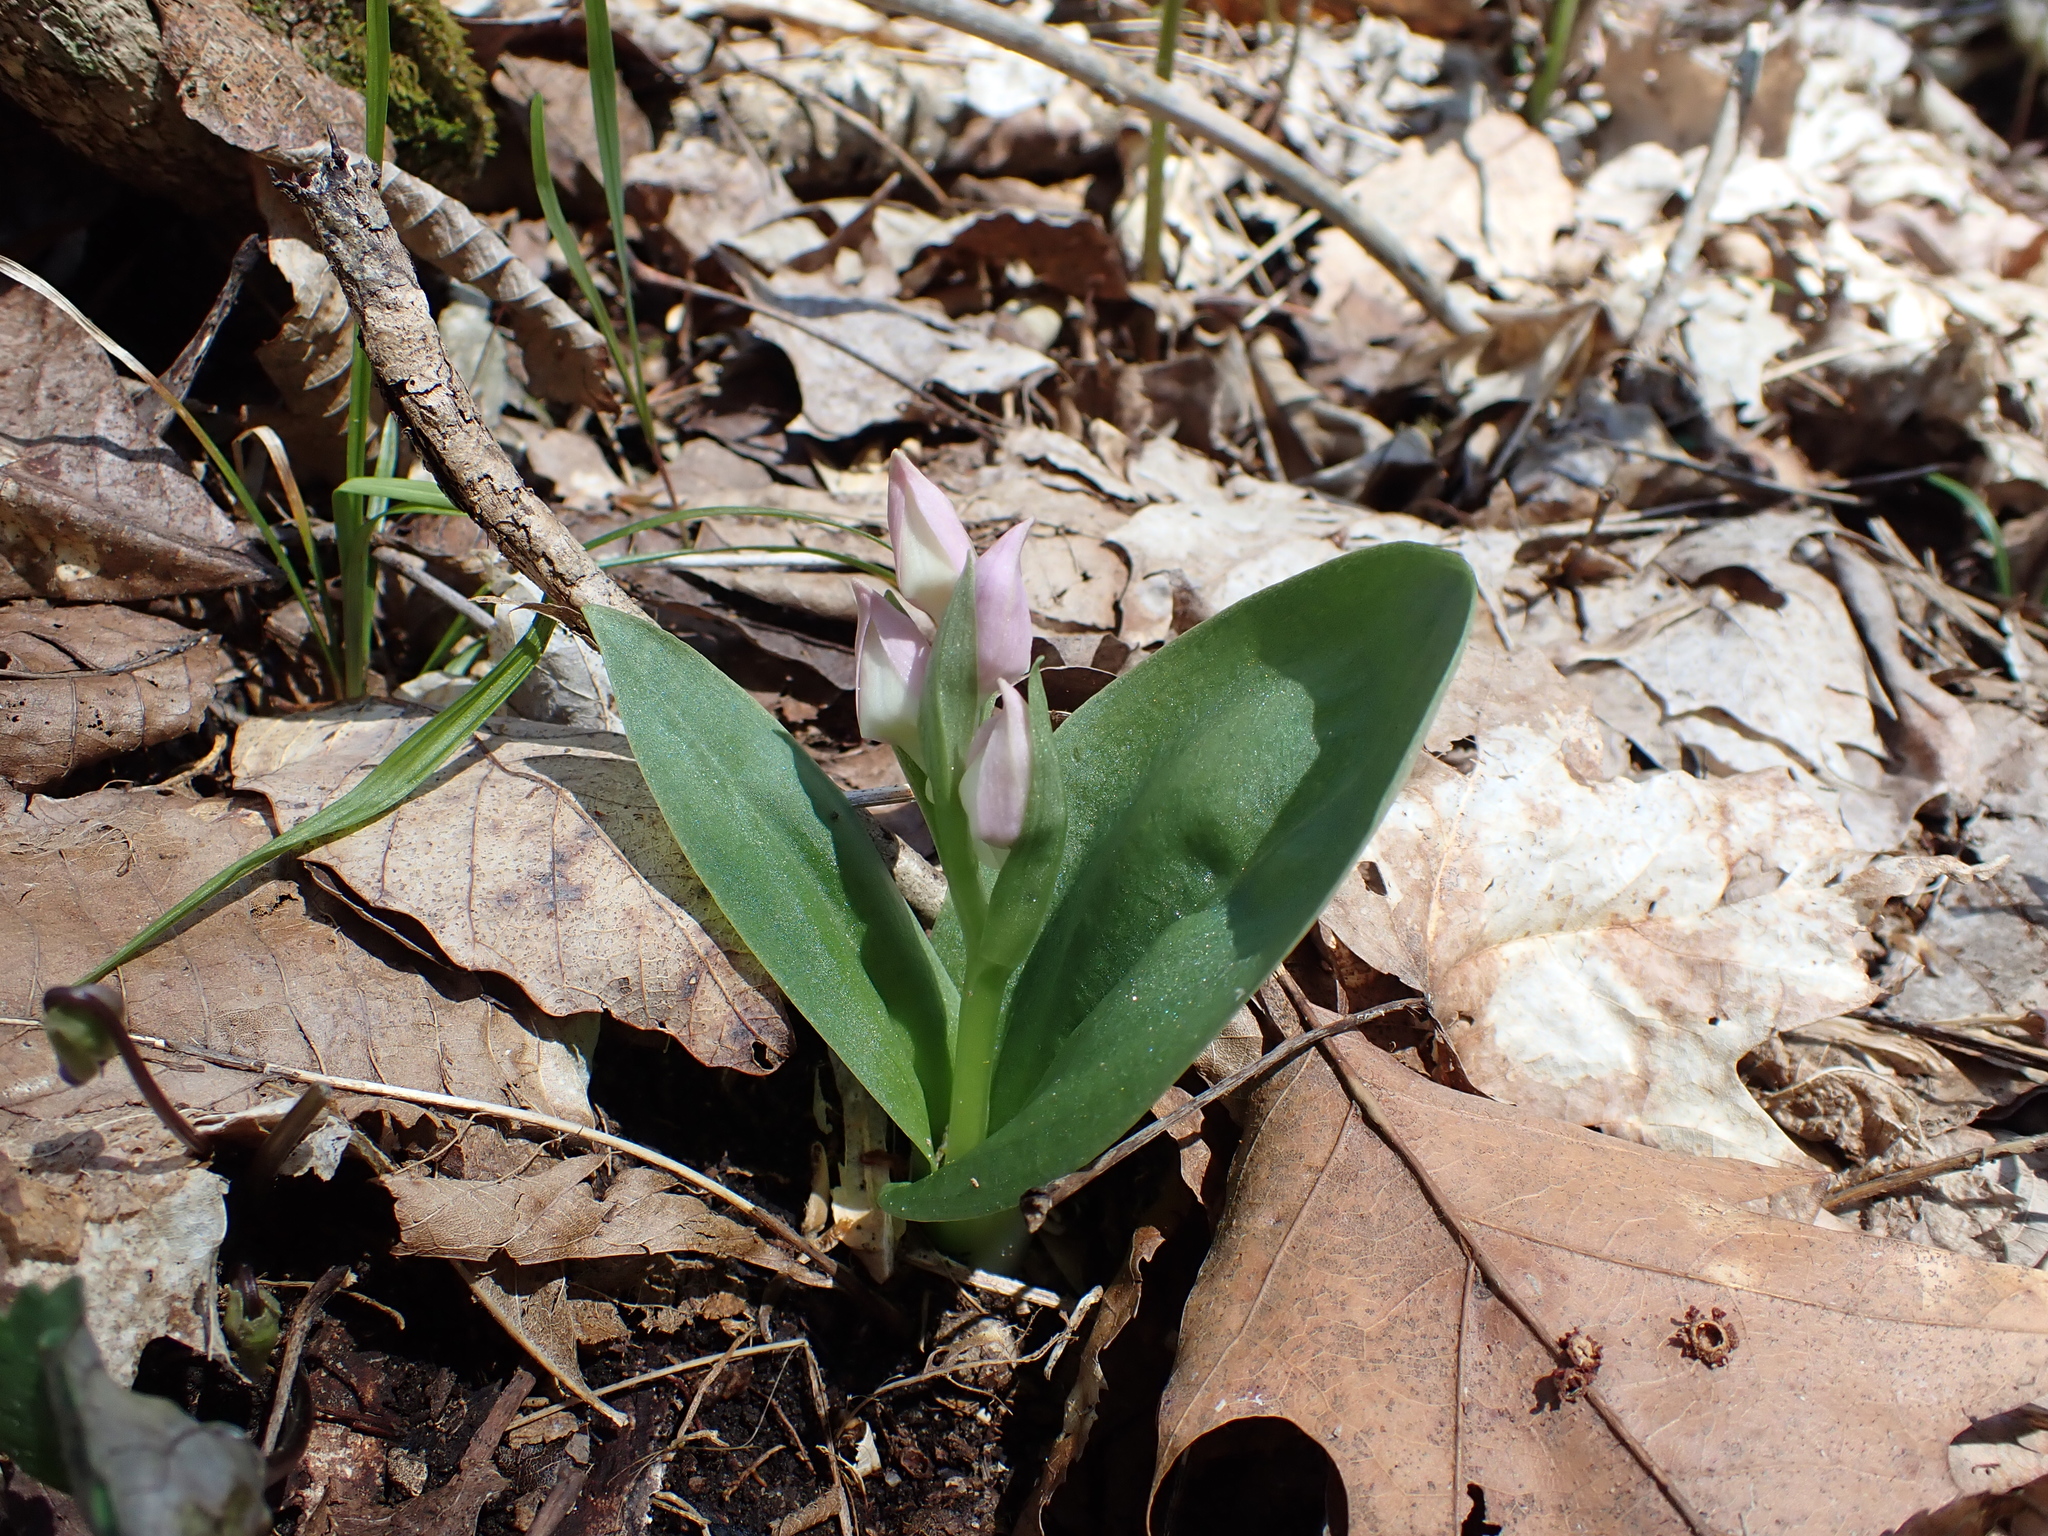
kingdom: Plantae
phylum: Tracheophyta
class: Liliopsida
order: Asparagales
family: Orchidaceae
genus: Galearis
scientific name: Galearis spectabilis
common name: Purple-hooded orchis
